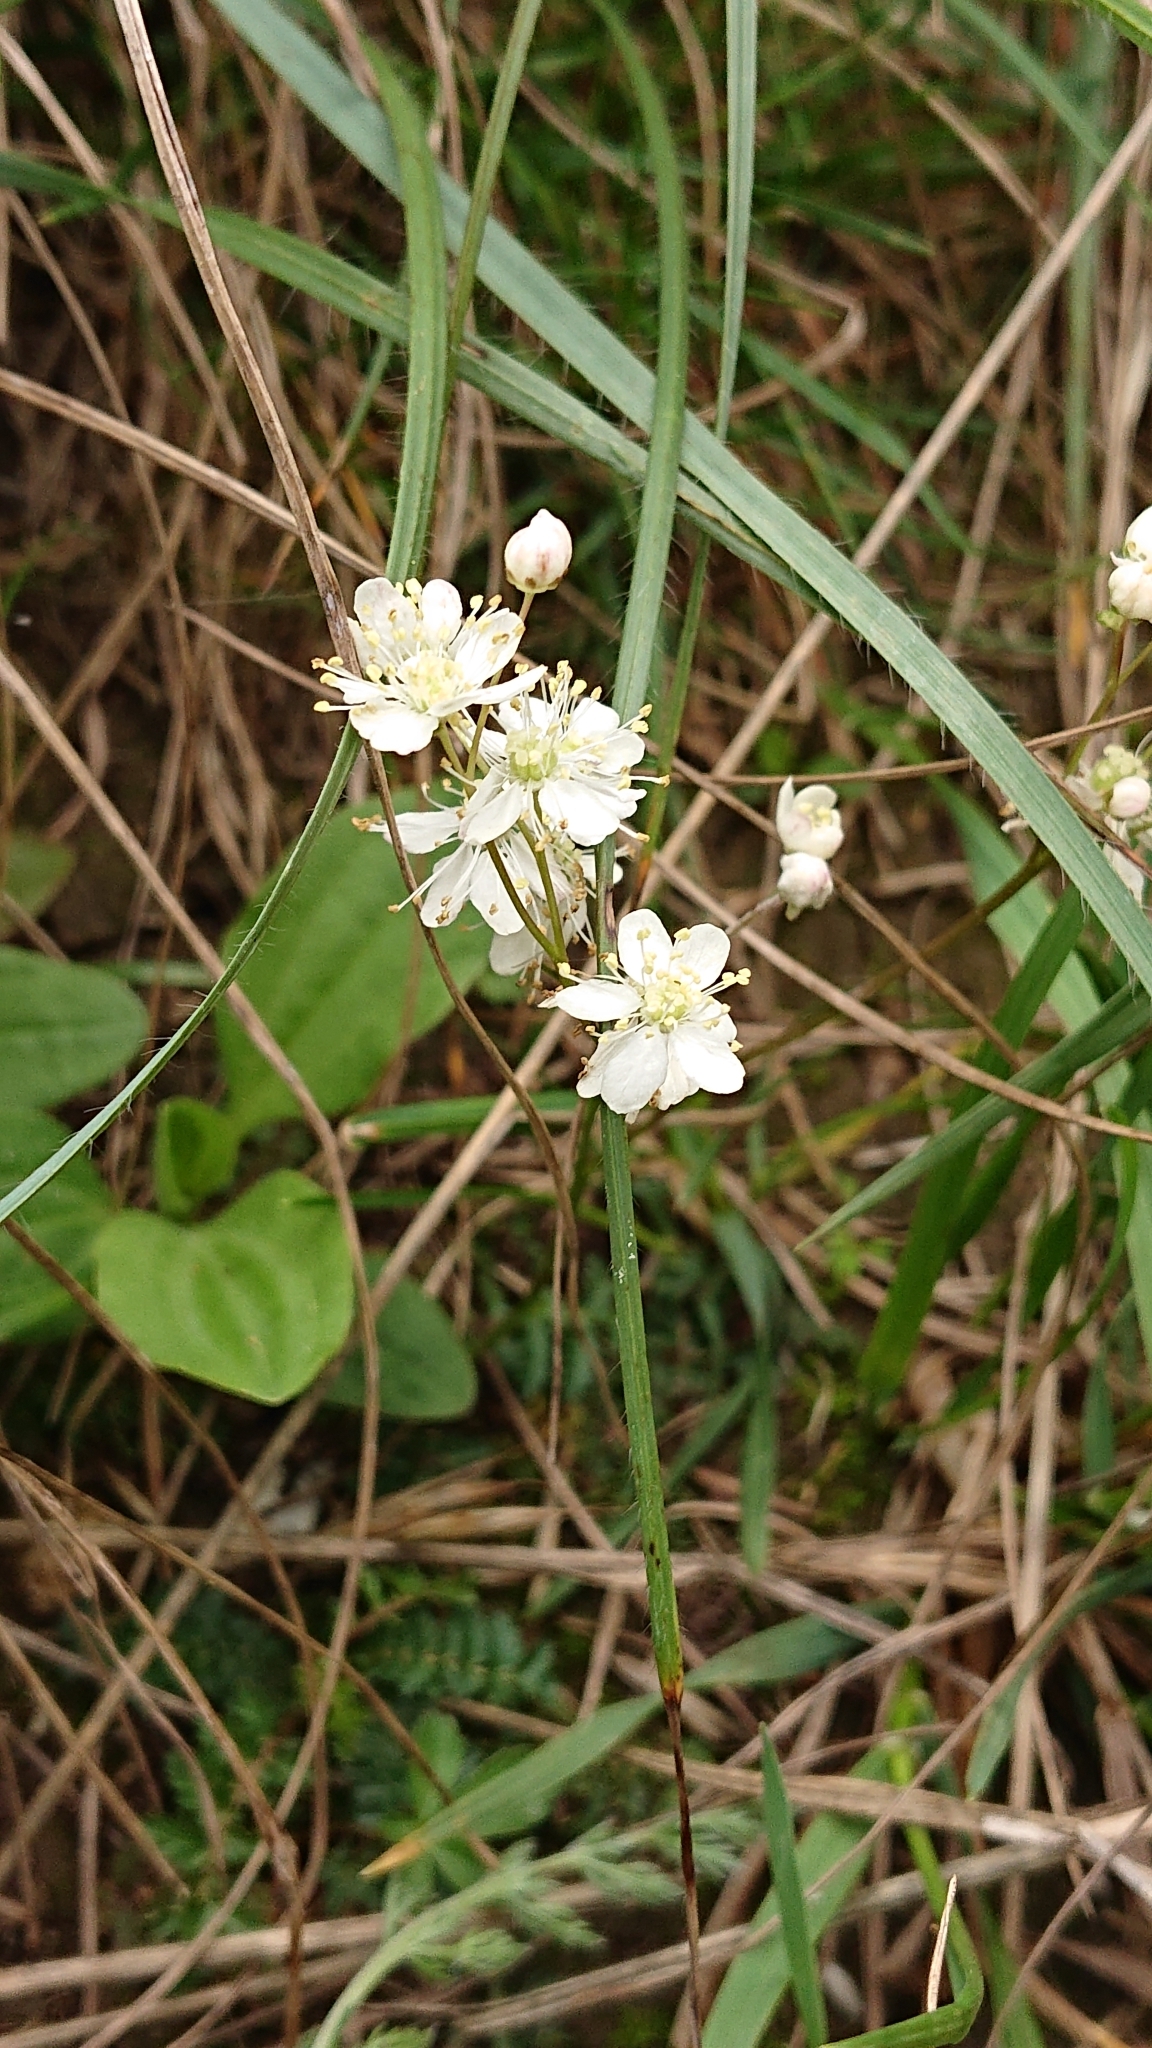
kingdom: Plantae
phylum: Tracheophyta
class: Magnoliopsida
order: Rosales
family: Rosaceae
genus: Filipendula
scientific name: Filipendula vulgaris
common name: Dropwort
